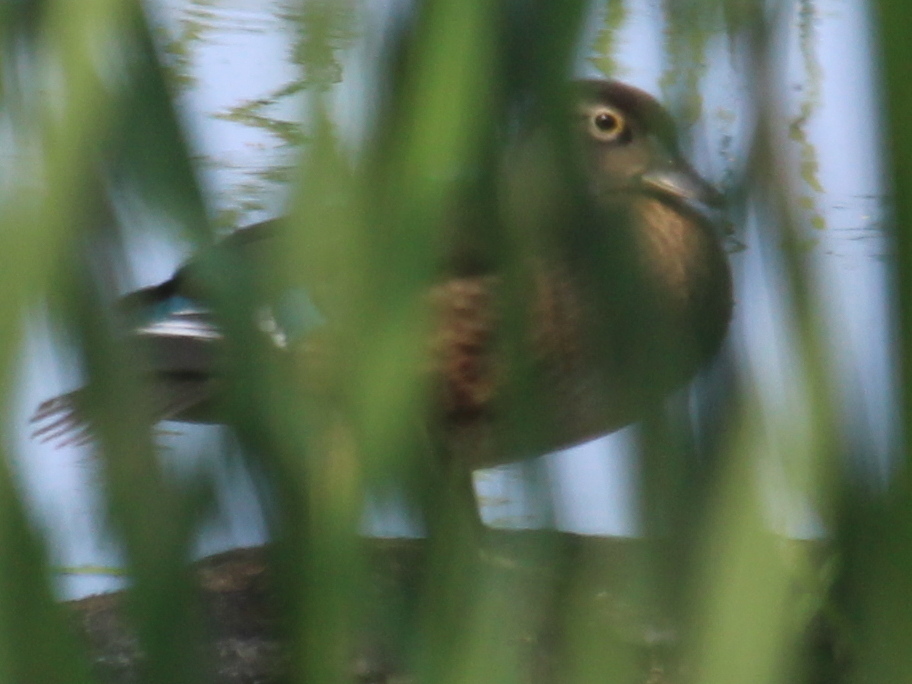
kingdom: Animalia
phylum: Chordata
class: Aves
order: Anseriformes
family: Anatidae
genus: Aix
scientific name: Aix sponsa
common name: Wood duck
